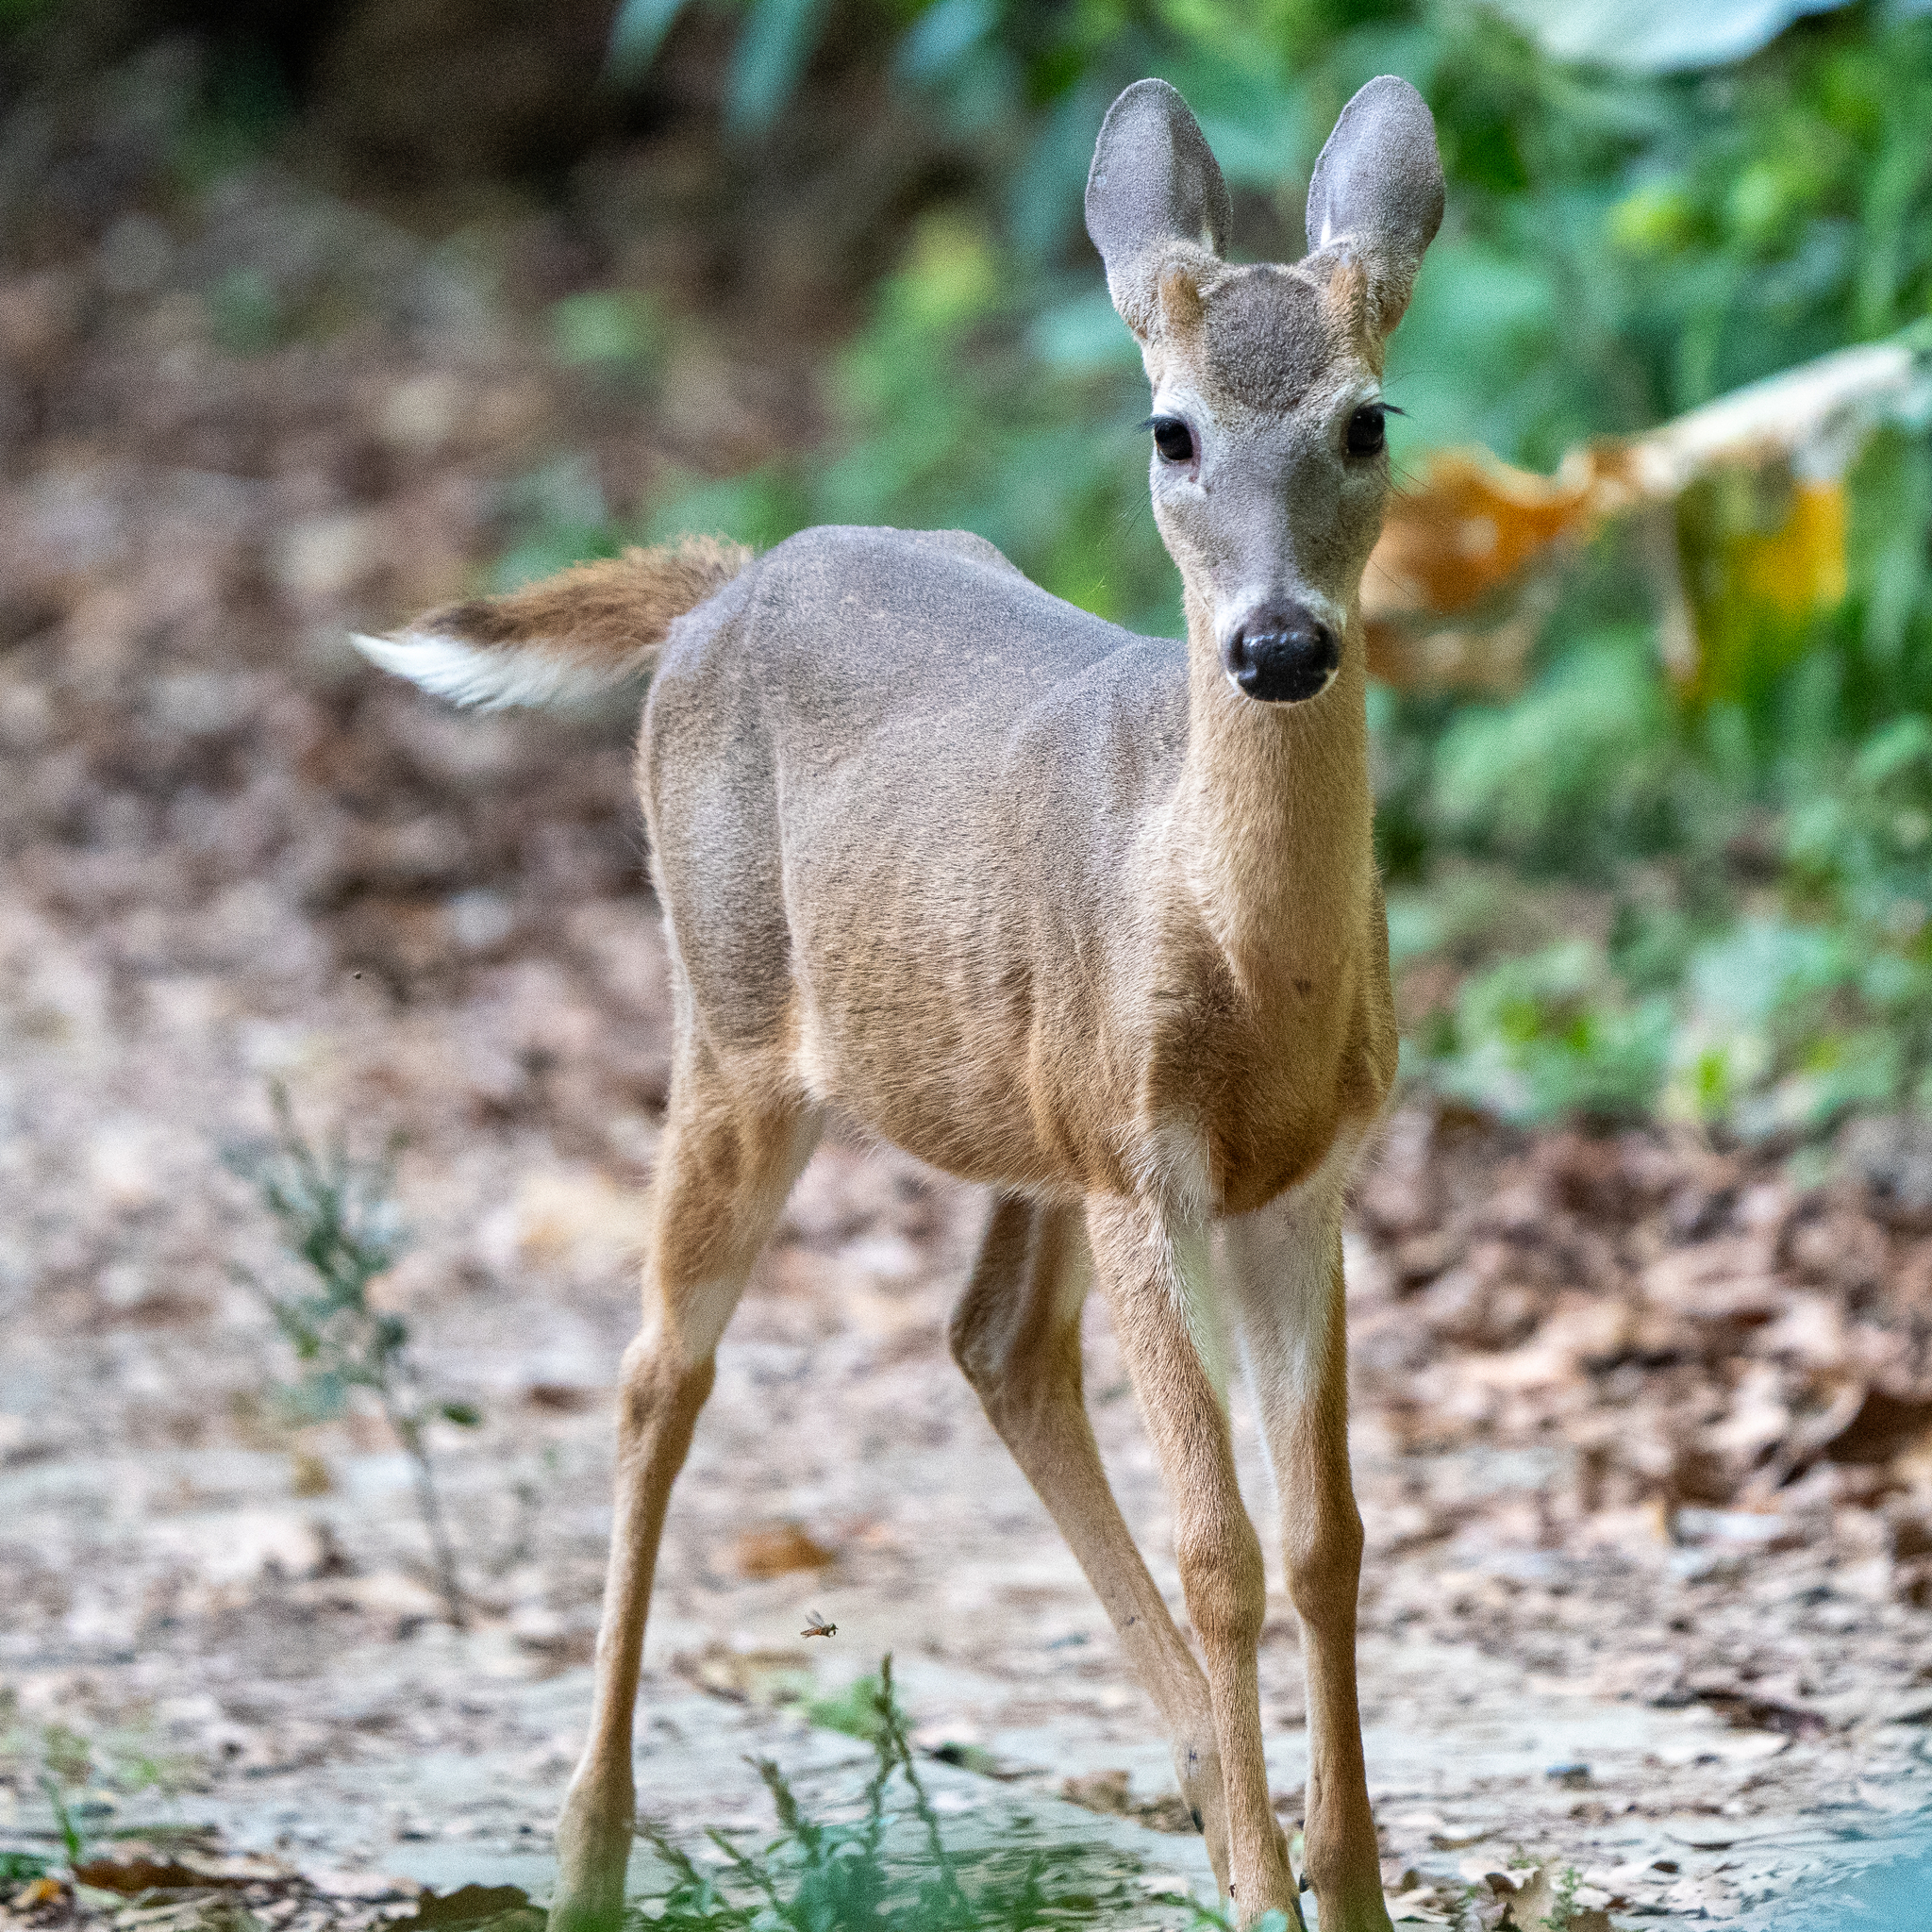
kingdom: Animalia
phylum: Chordata
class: Mammalia
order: Artiodactyla
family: Cervidae
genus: Odocoileus
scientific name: Odocoileus virginianus
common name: White-tailed deer
